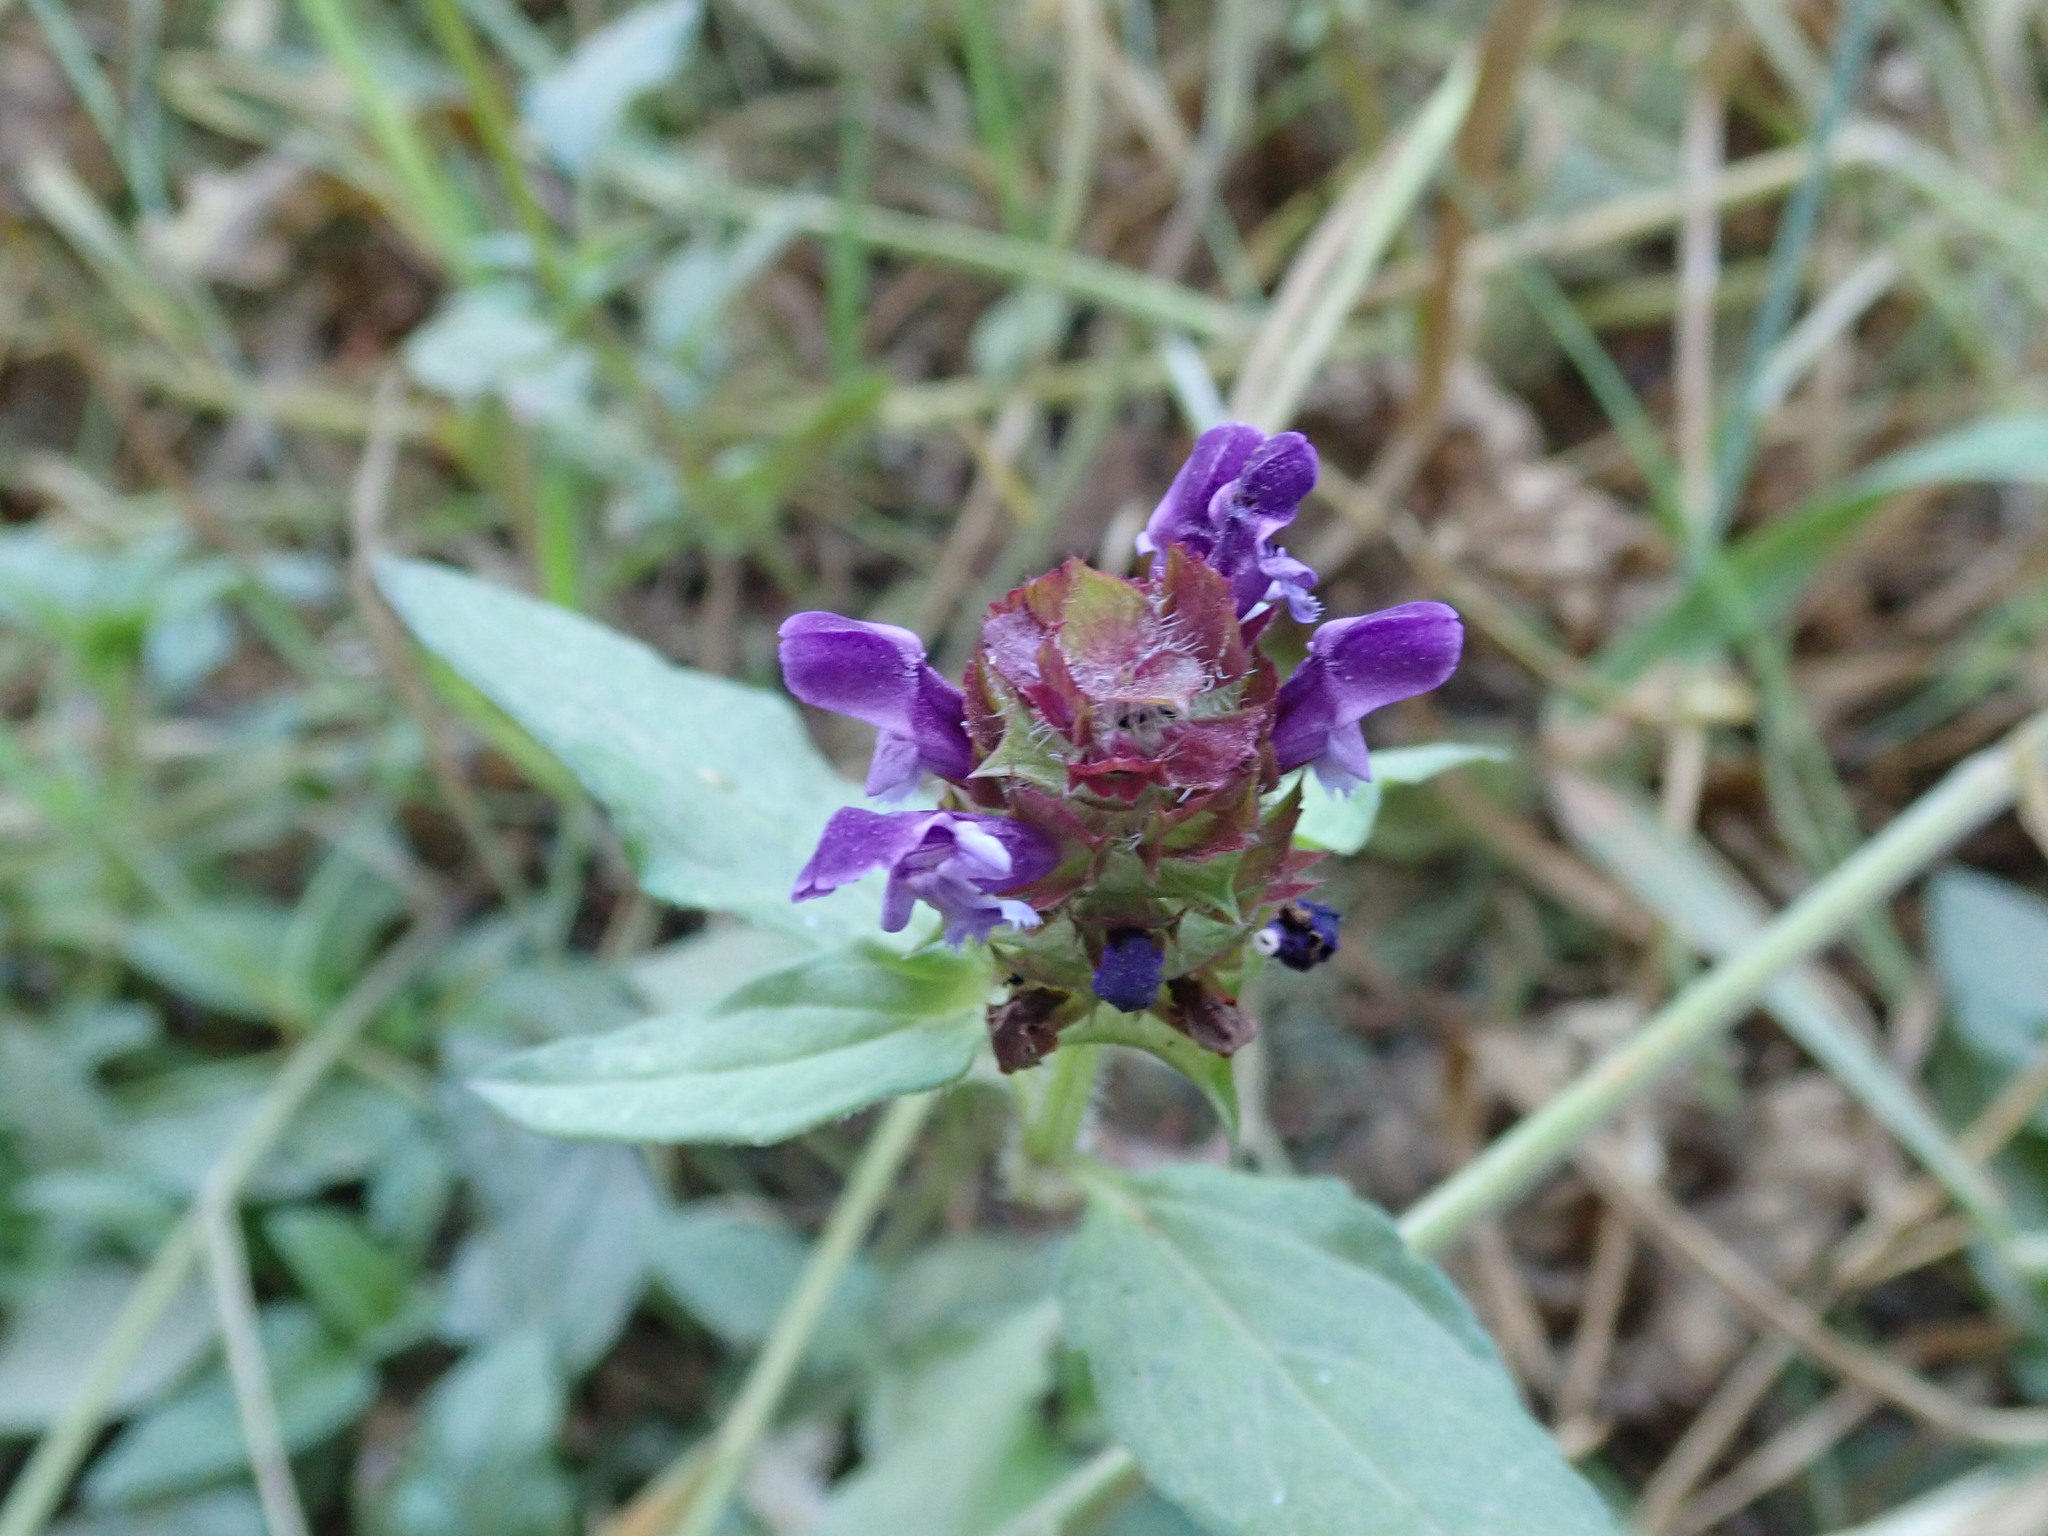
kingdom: Plantae
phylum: Tracheophyta
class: Magnoliopsida
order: Lamiales
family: Lamiaceae
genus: Prunella
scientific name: Prunella vulgaris
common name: Heal-all
